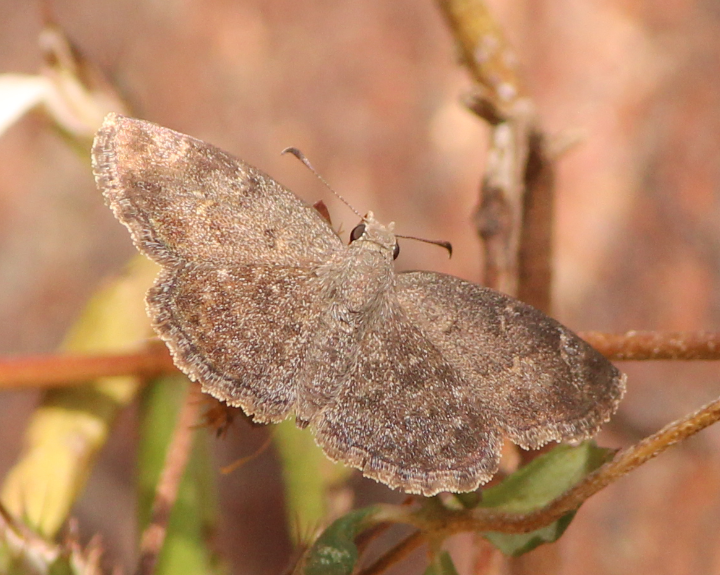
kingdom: Animalia
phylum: Arthropoda
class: Insecta
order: Lepidoptera
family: Hesperiidae
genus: Sarangesa
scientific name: Sarangesa purendra
